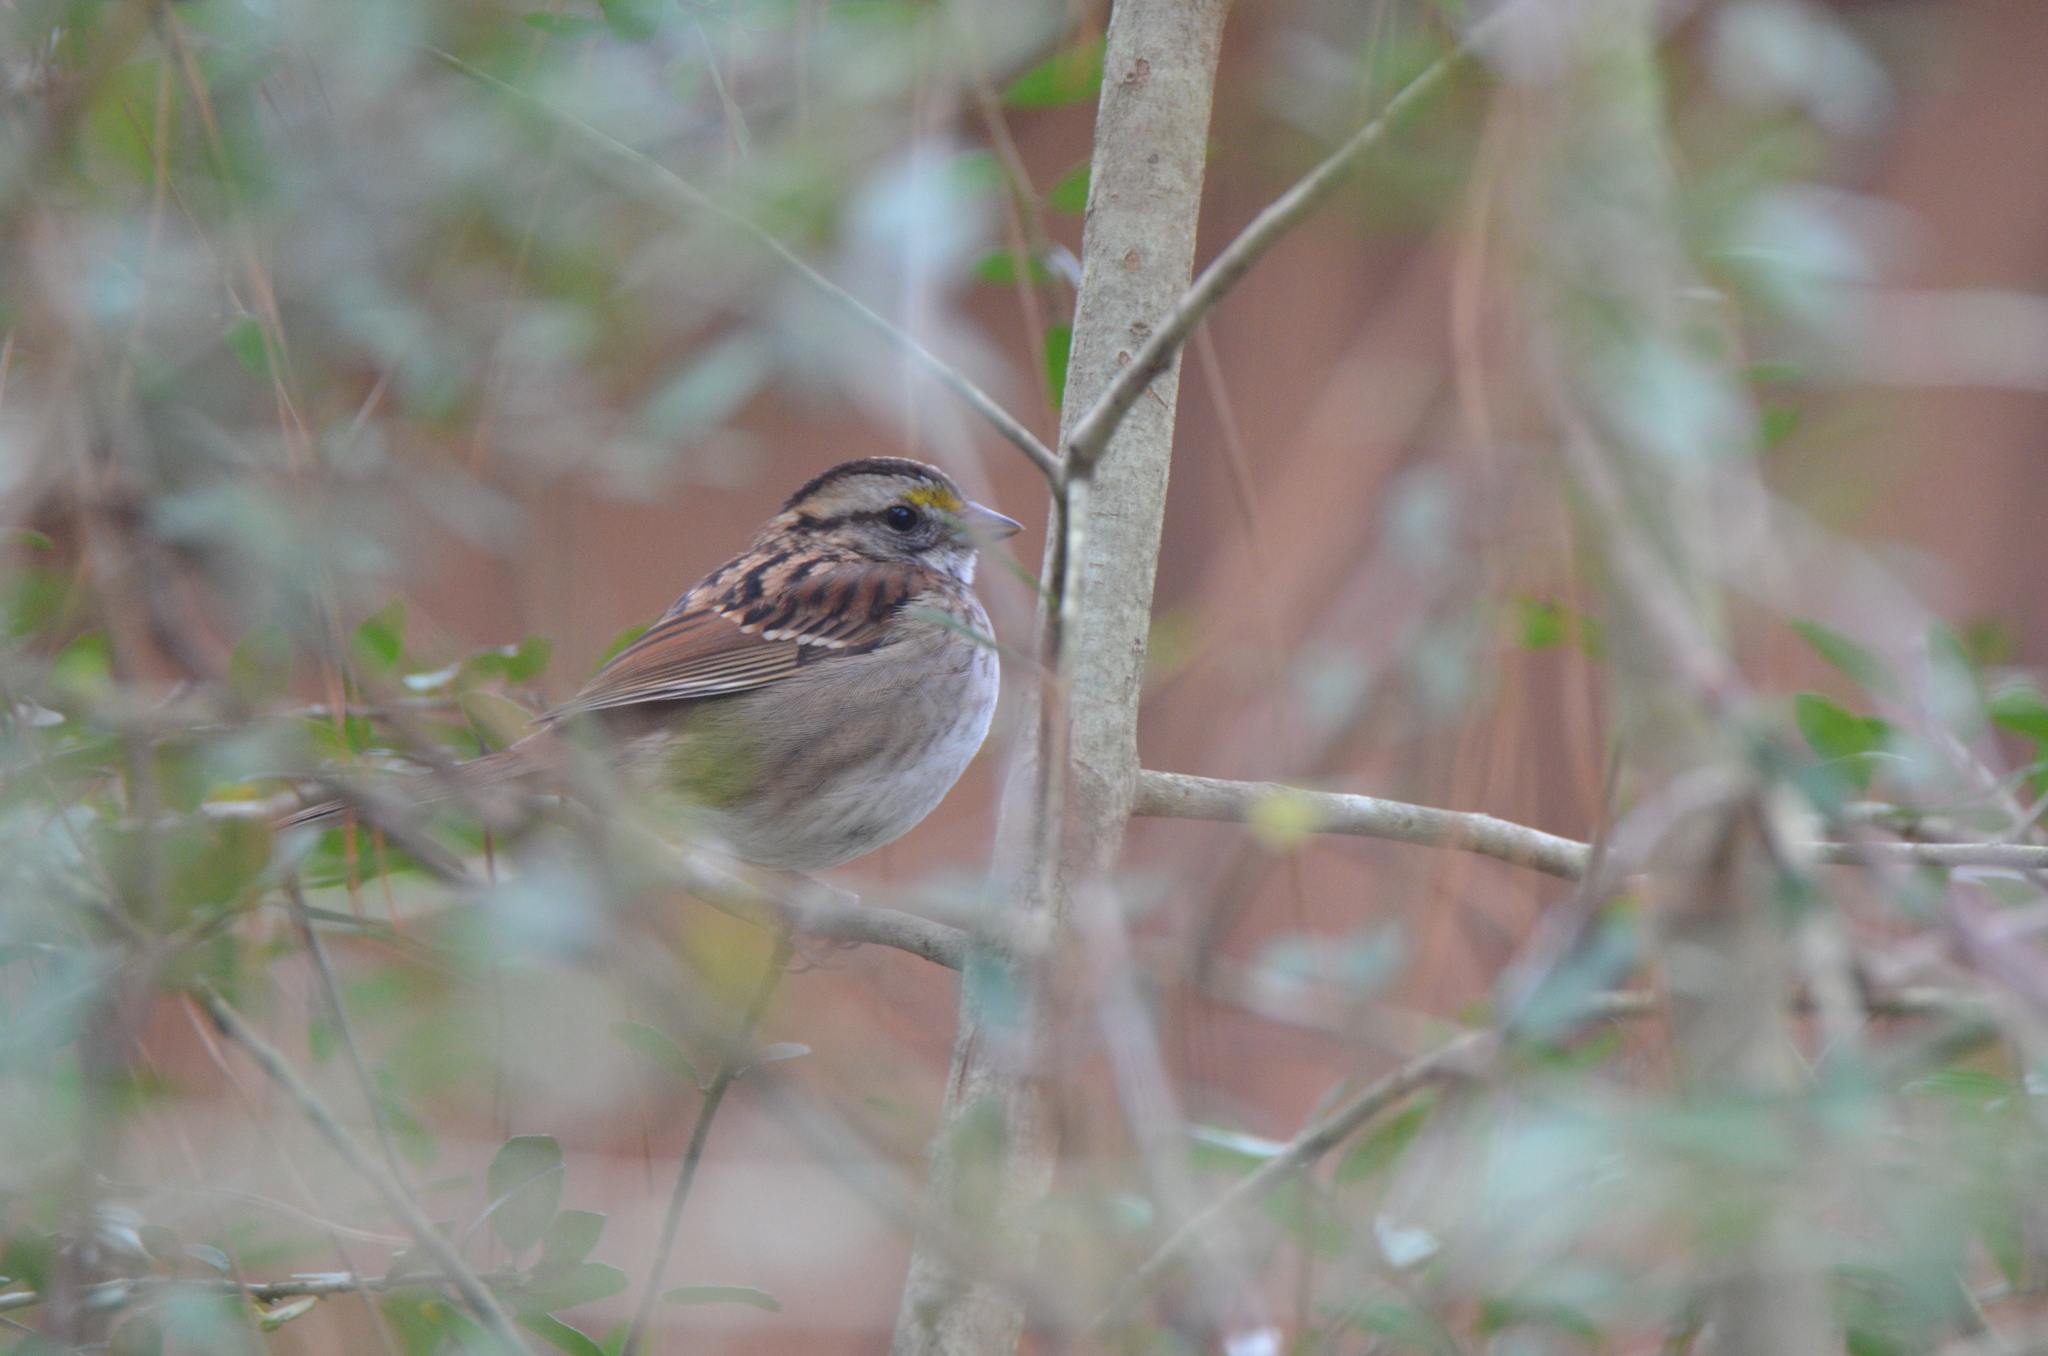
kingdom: Animalia
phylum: Chordata
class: Aves
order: Passeriformes
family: Passerellidae
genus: Zonotrichia
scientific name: Zonotrichia albicollis
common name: White-throated sparrow
